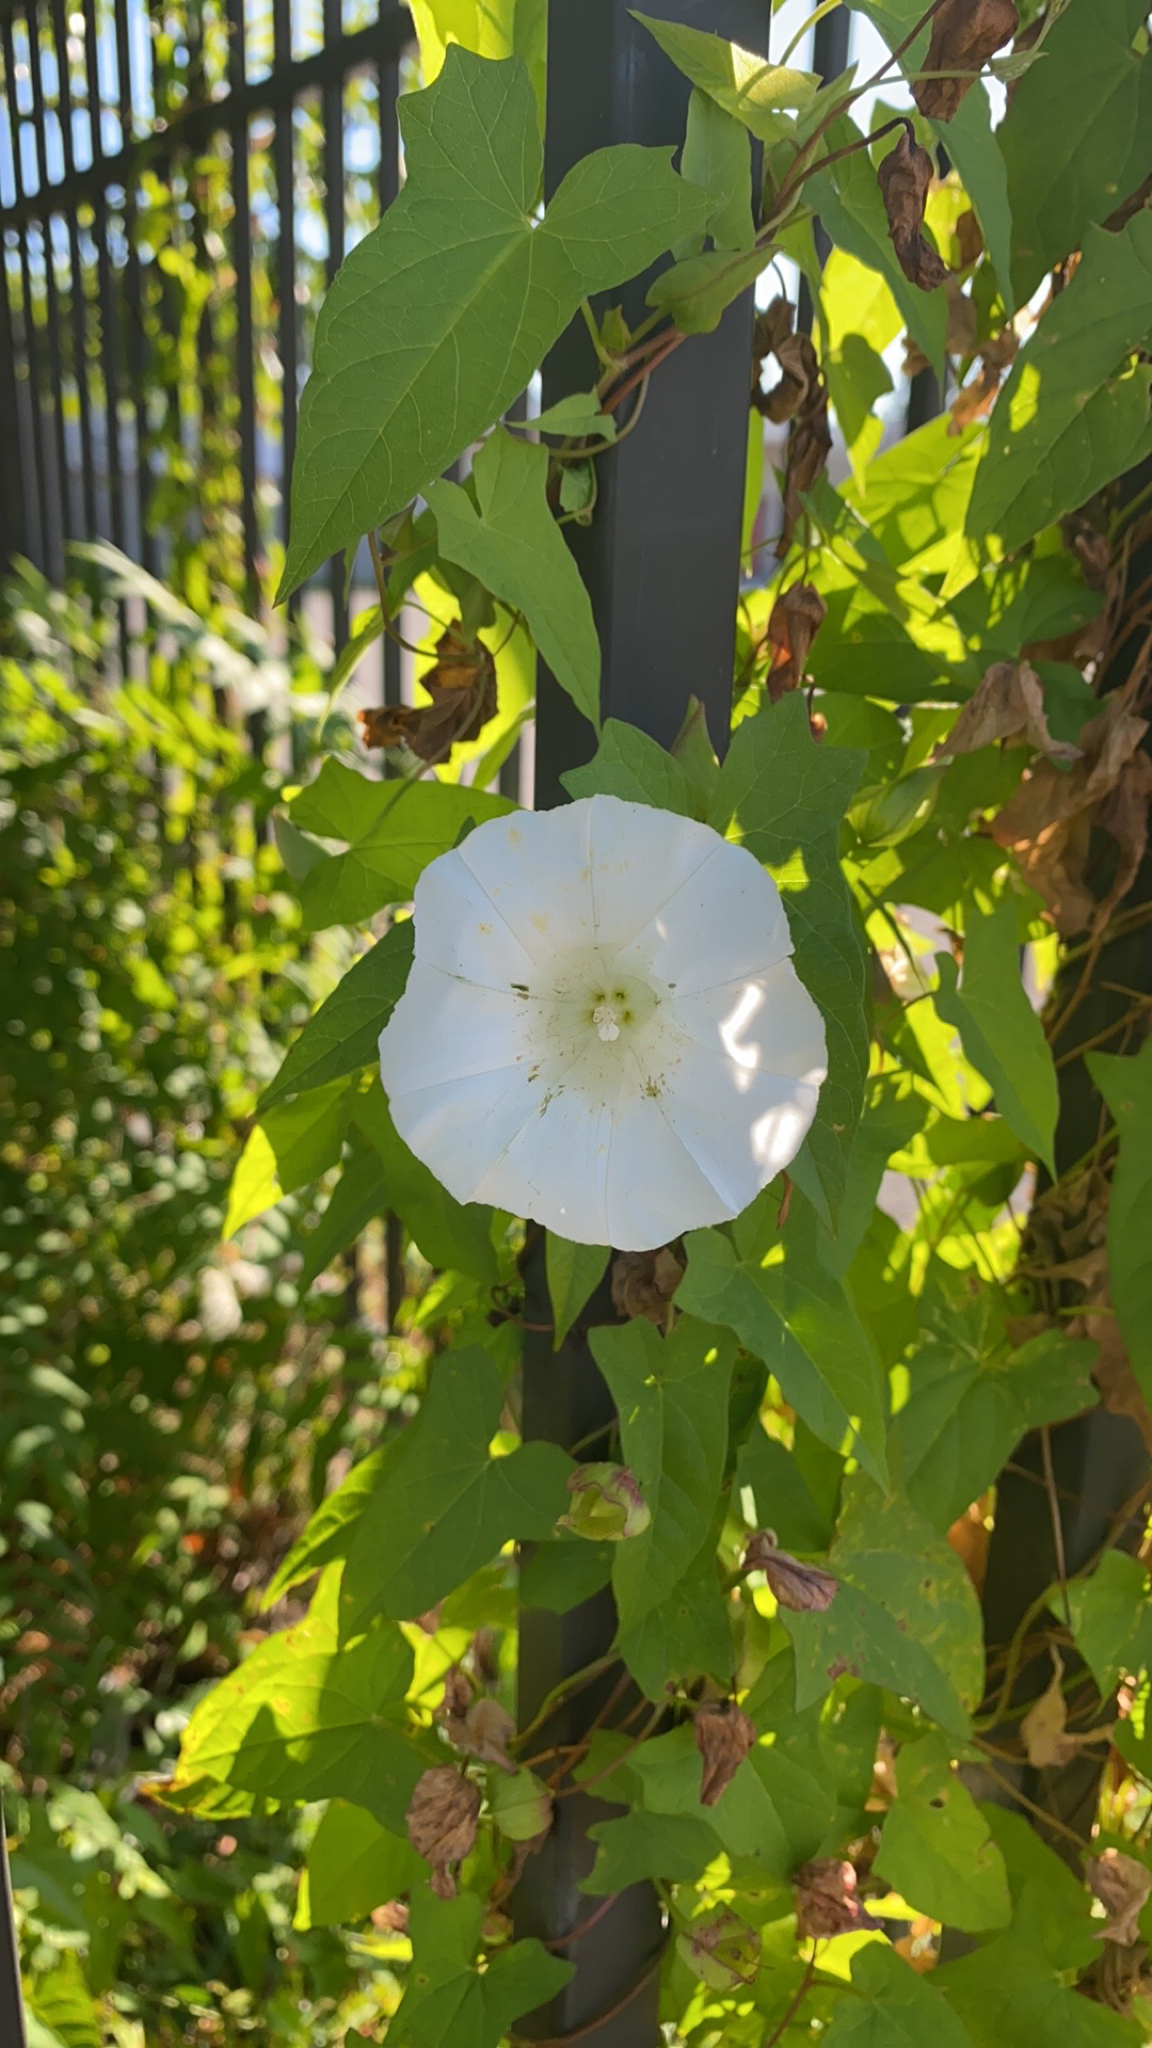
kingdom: Plantae
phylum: Tracheophyta
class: Magnoliopsida
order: Solanales
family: Convolvulaceae
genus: Calystegia
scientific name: Calystegia sepium
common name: Hedge bindweed
